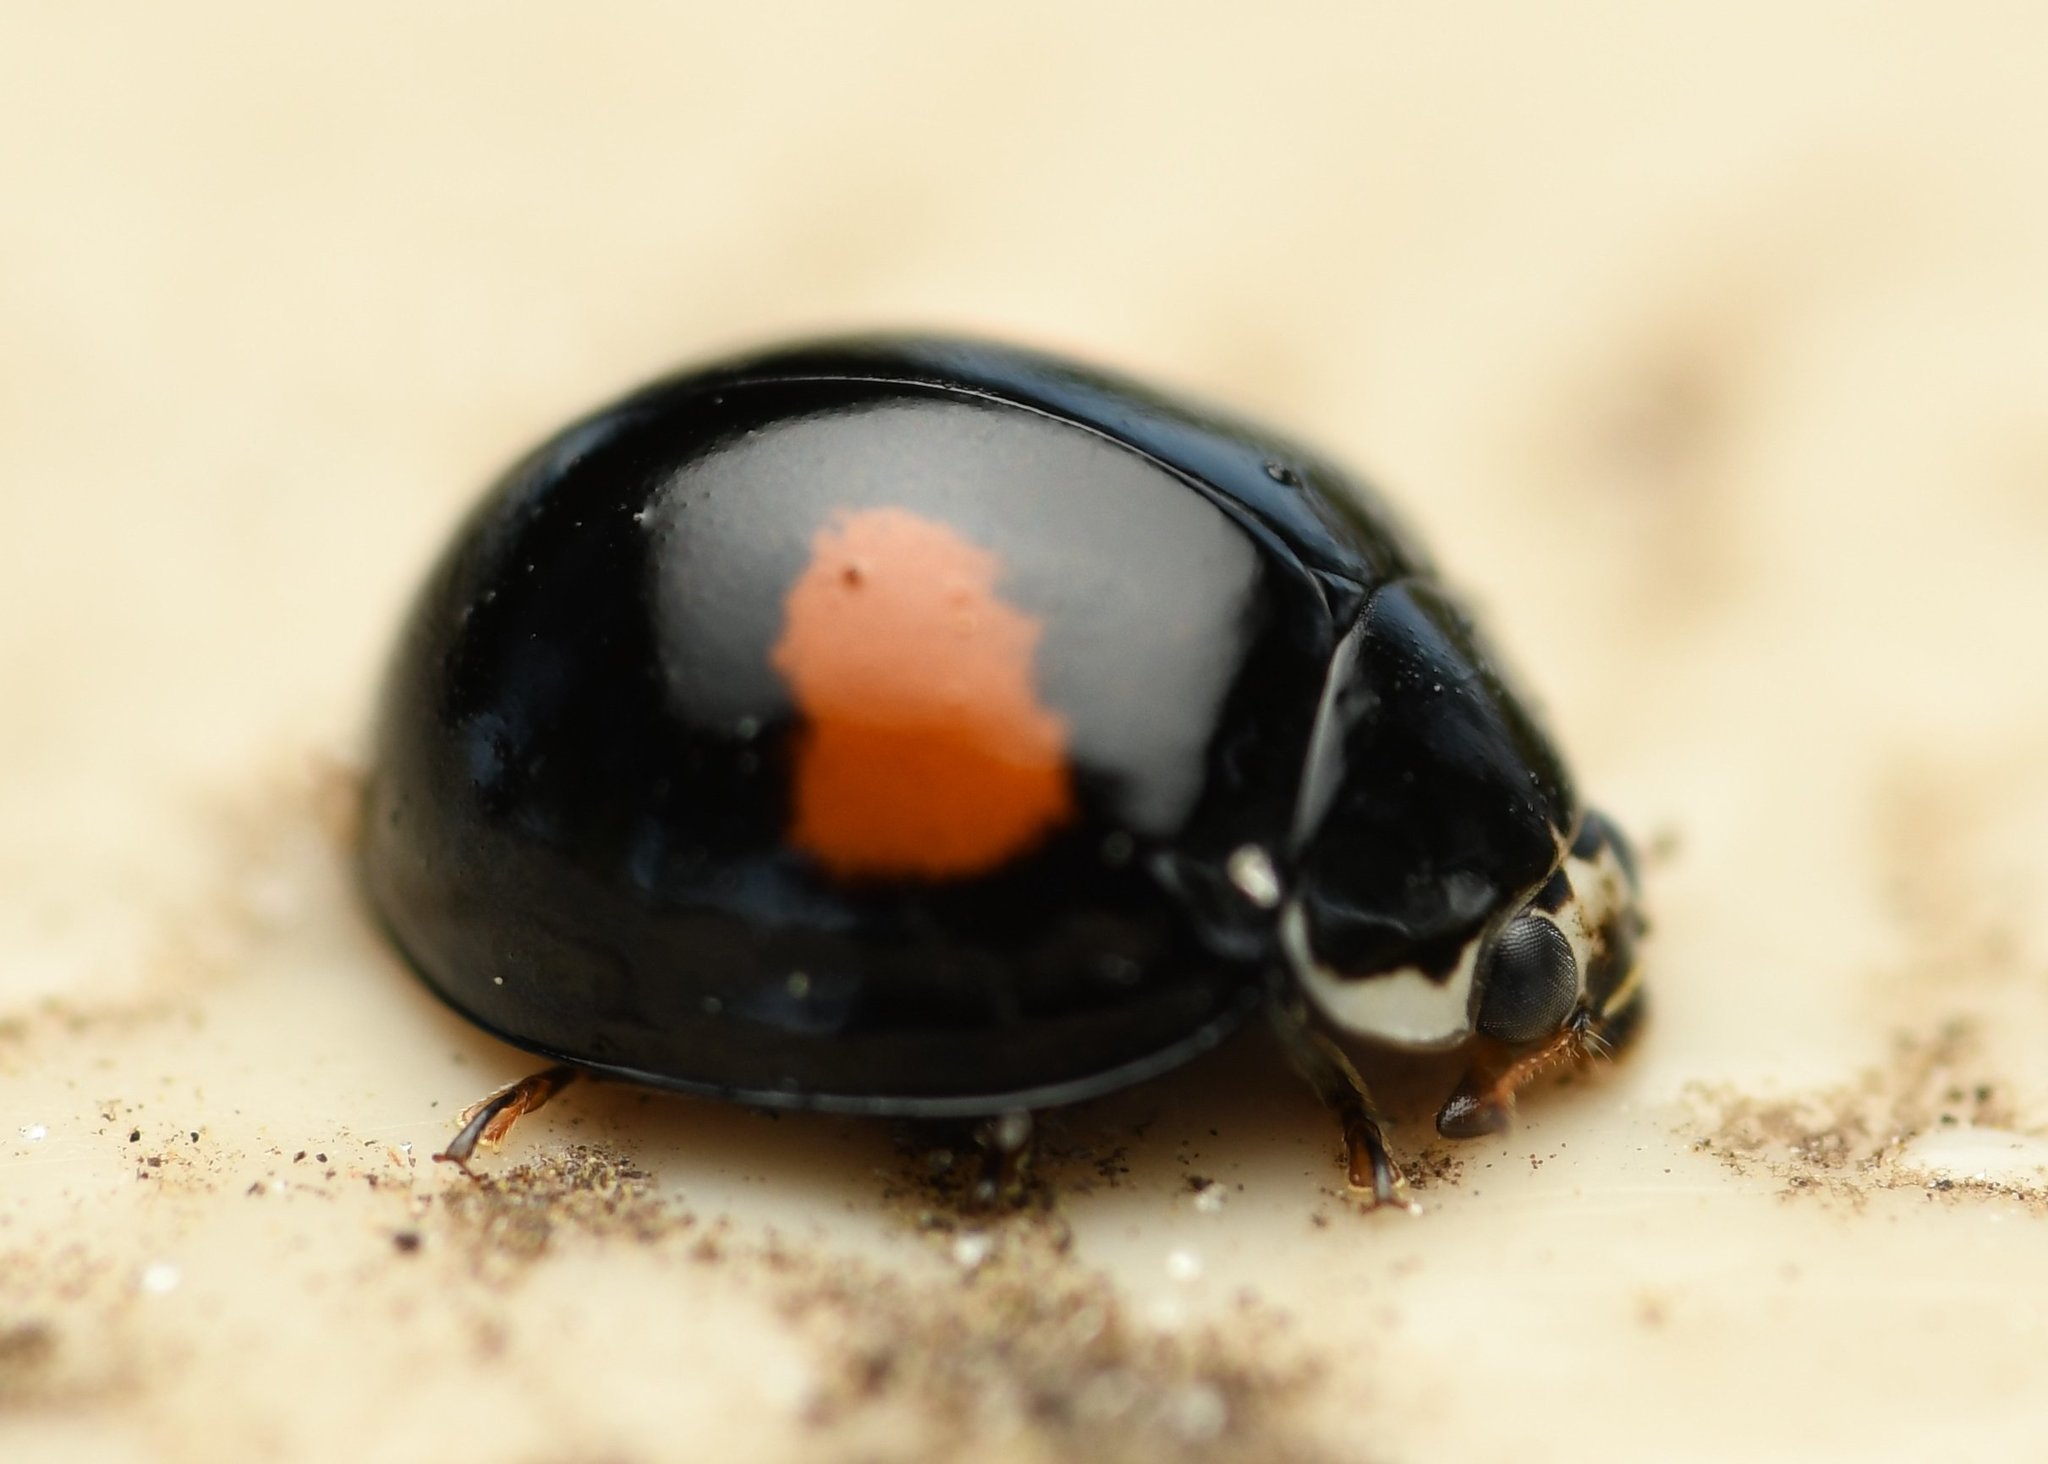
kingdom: Animalia
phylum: Arthropoda
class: Insecta
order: Coleoptera
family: Coccinellidae
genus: Olla
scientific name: Olla v-nigrum
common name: Ashy gray lady beetle
